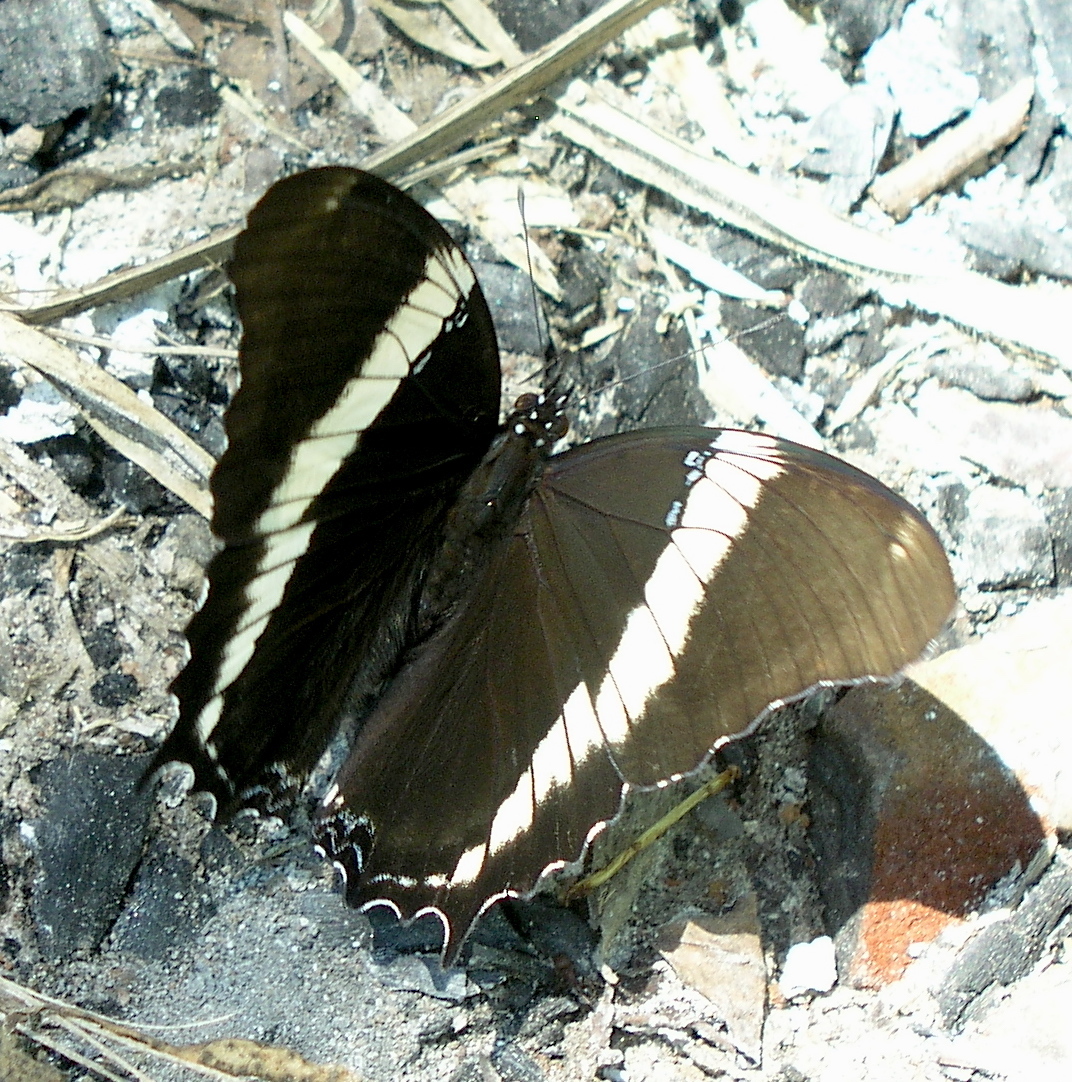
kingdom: Animalia
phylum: Arthropoda
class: Insecta
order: Lepidoptera
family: Nymphalidae
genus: Siproeta
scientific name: Siproeta epaphus
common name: Rusty-tipped page
